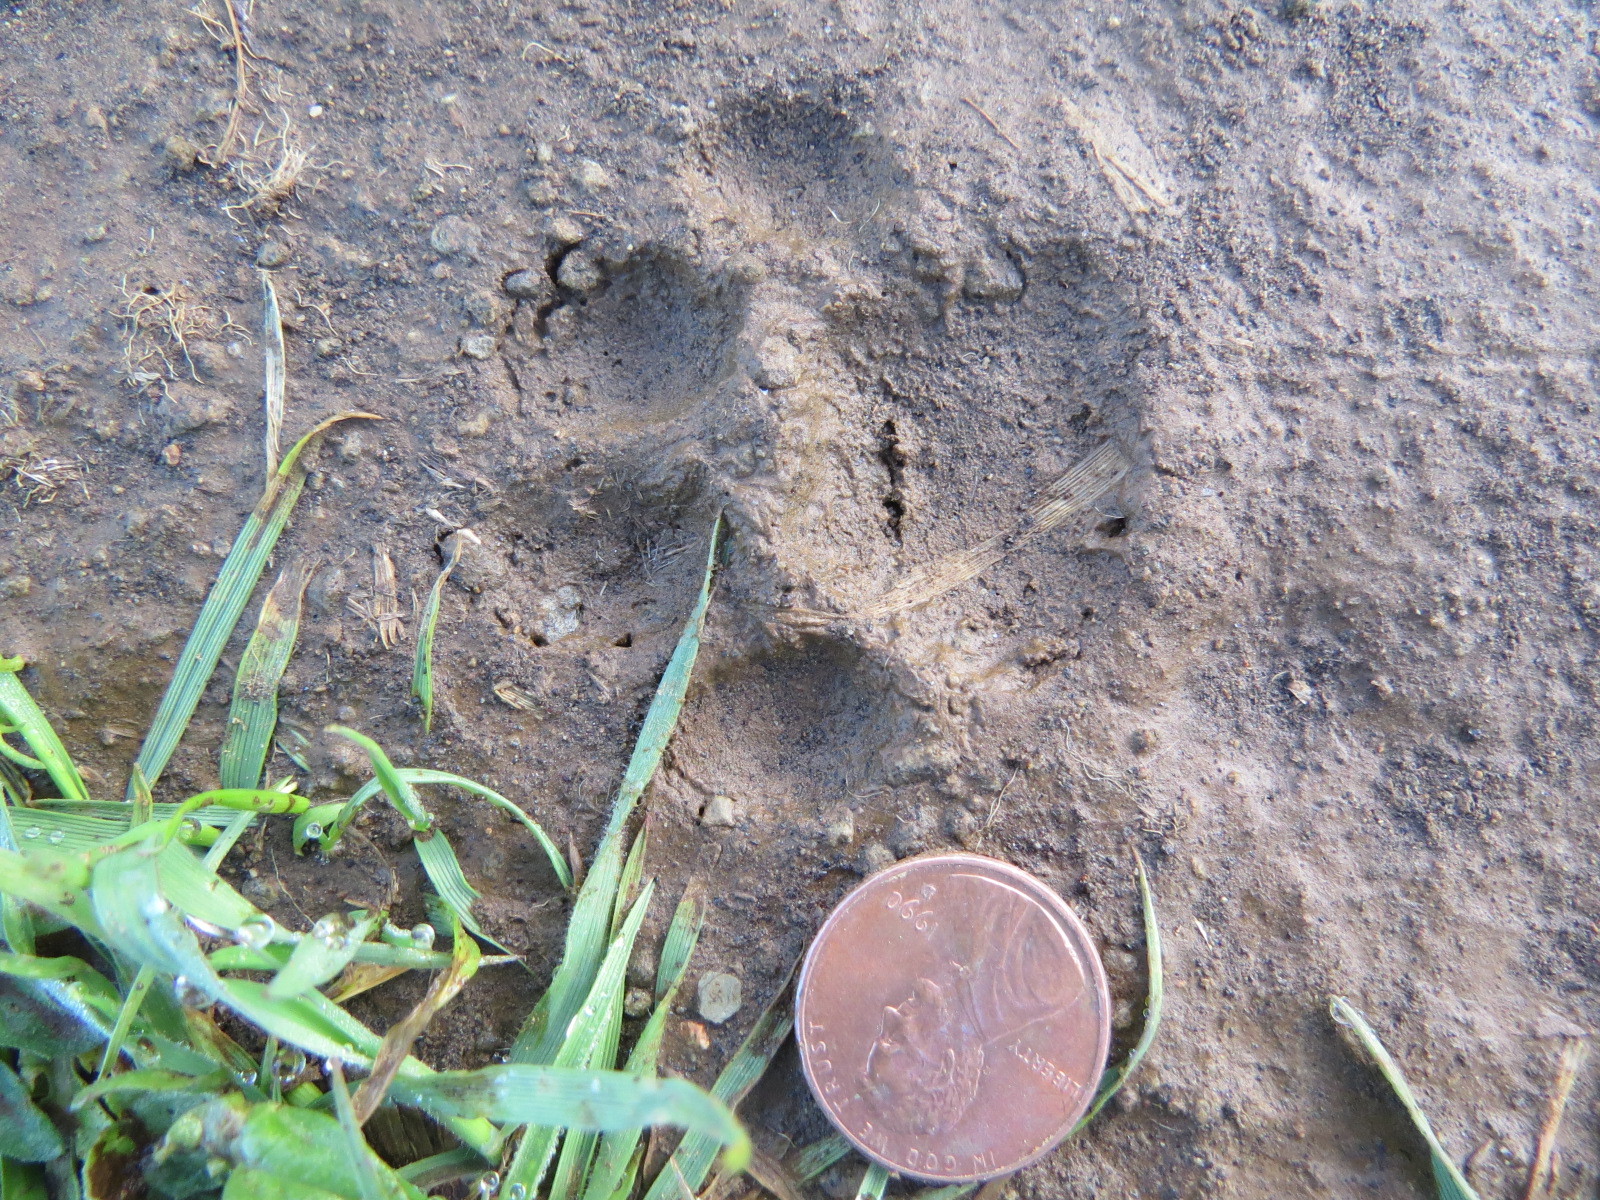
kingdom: Animalia
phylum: Chordata
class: Mammalia
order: Carnivora
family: Felidae
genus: Lynx
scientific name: Lynx rufus
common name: Bobcat
